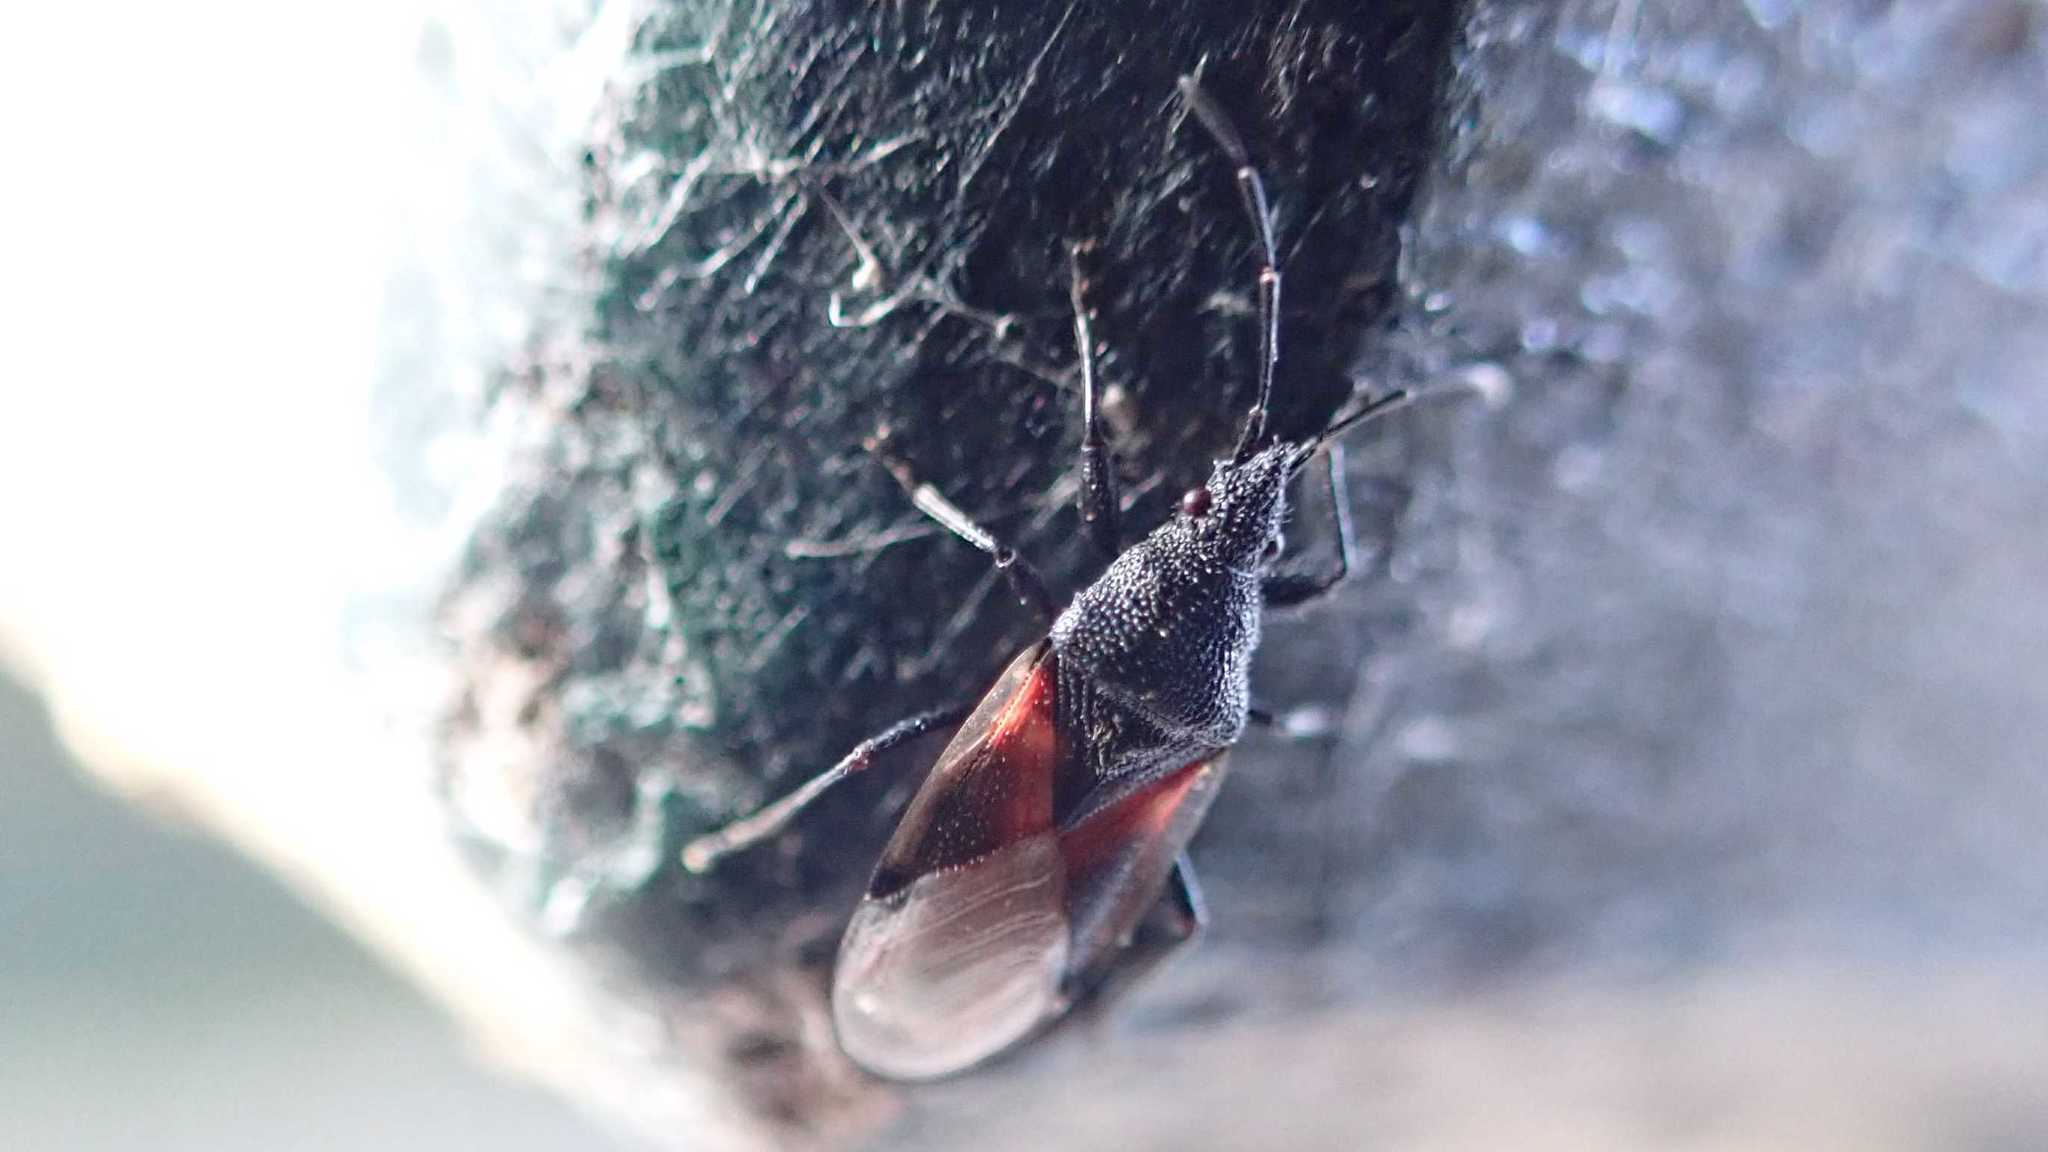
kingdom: Animalia
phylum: Arthropoda
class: Insecta
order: Hemiptera
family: Oxycarenidae
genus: Oxycarenus
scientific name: Oxycarenus lavaterae
